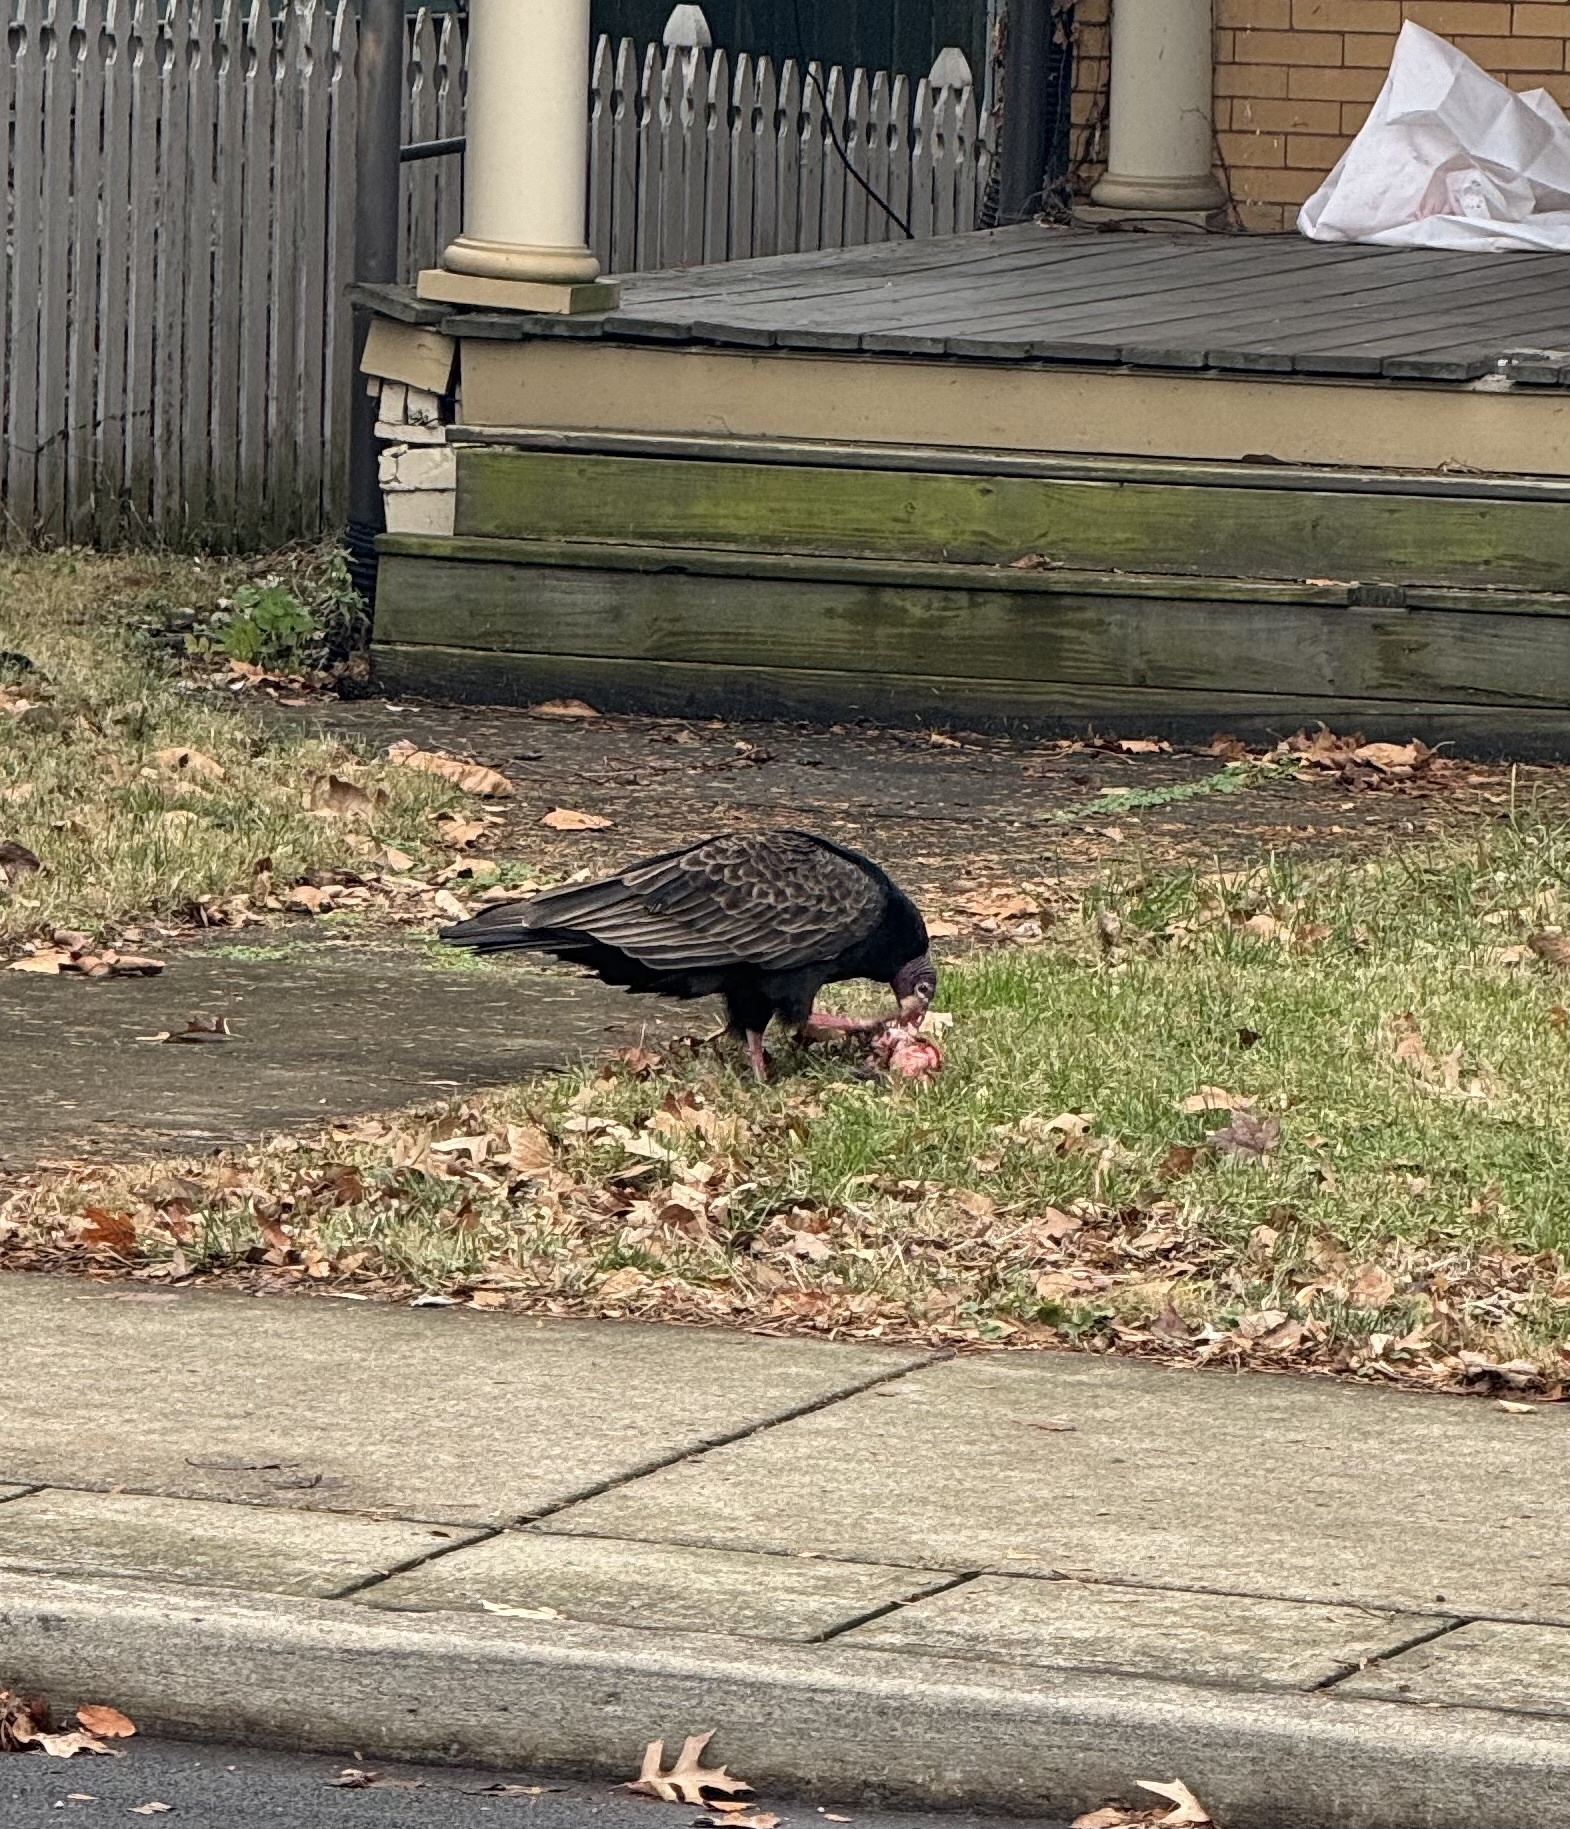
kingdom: Animalia
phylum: Chordata
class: Aves
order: Accipitriformes
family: Cathartidae
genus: Cathartes
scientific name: Cathartes aura
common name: Turkey vulture
